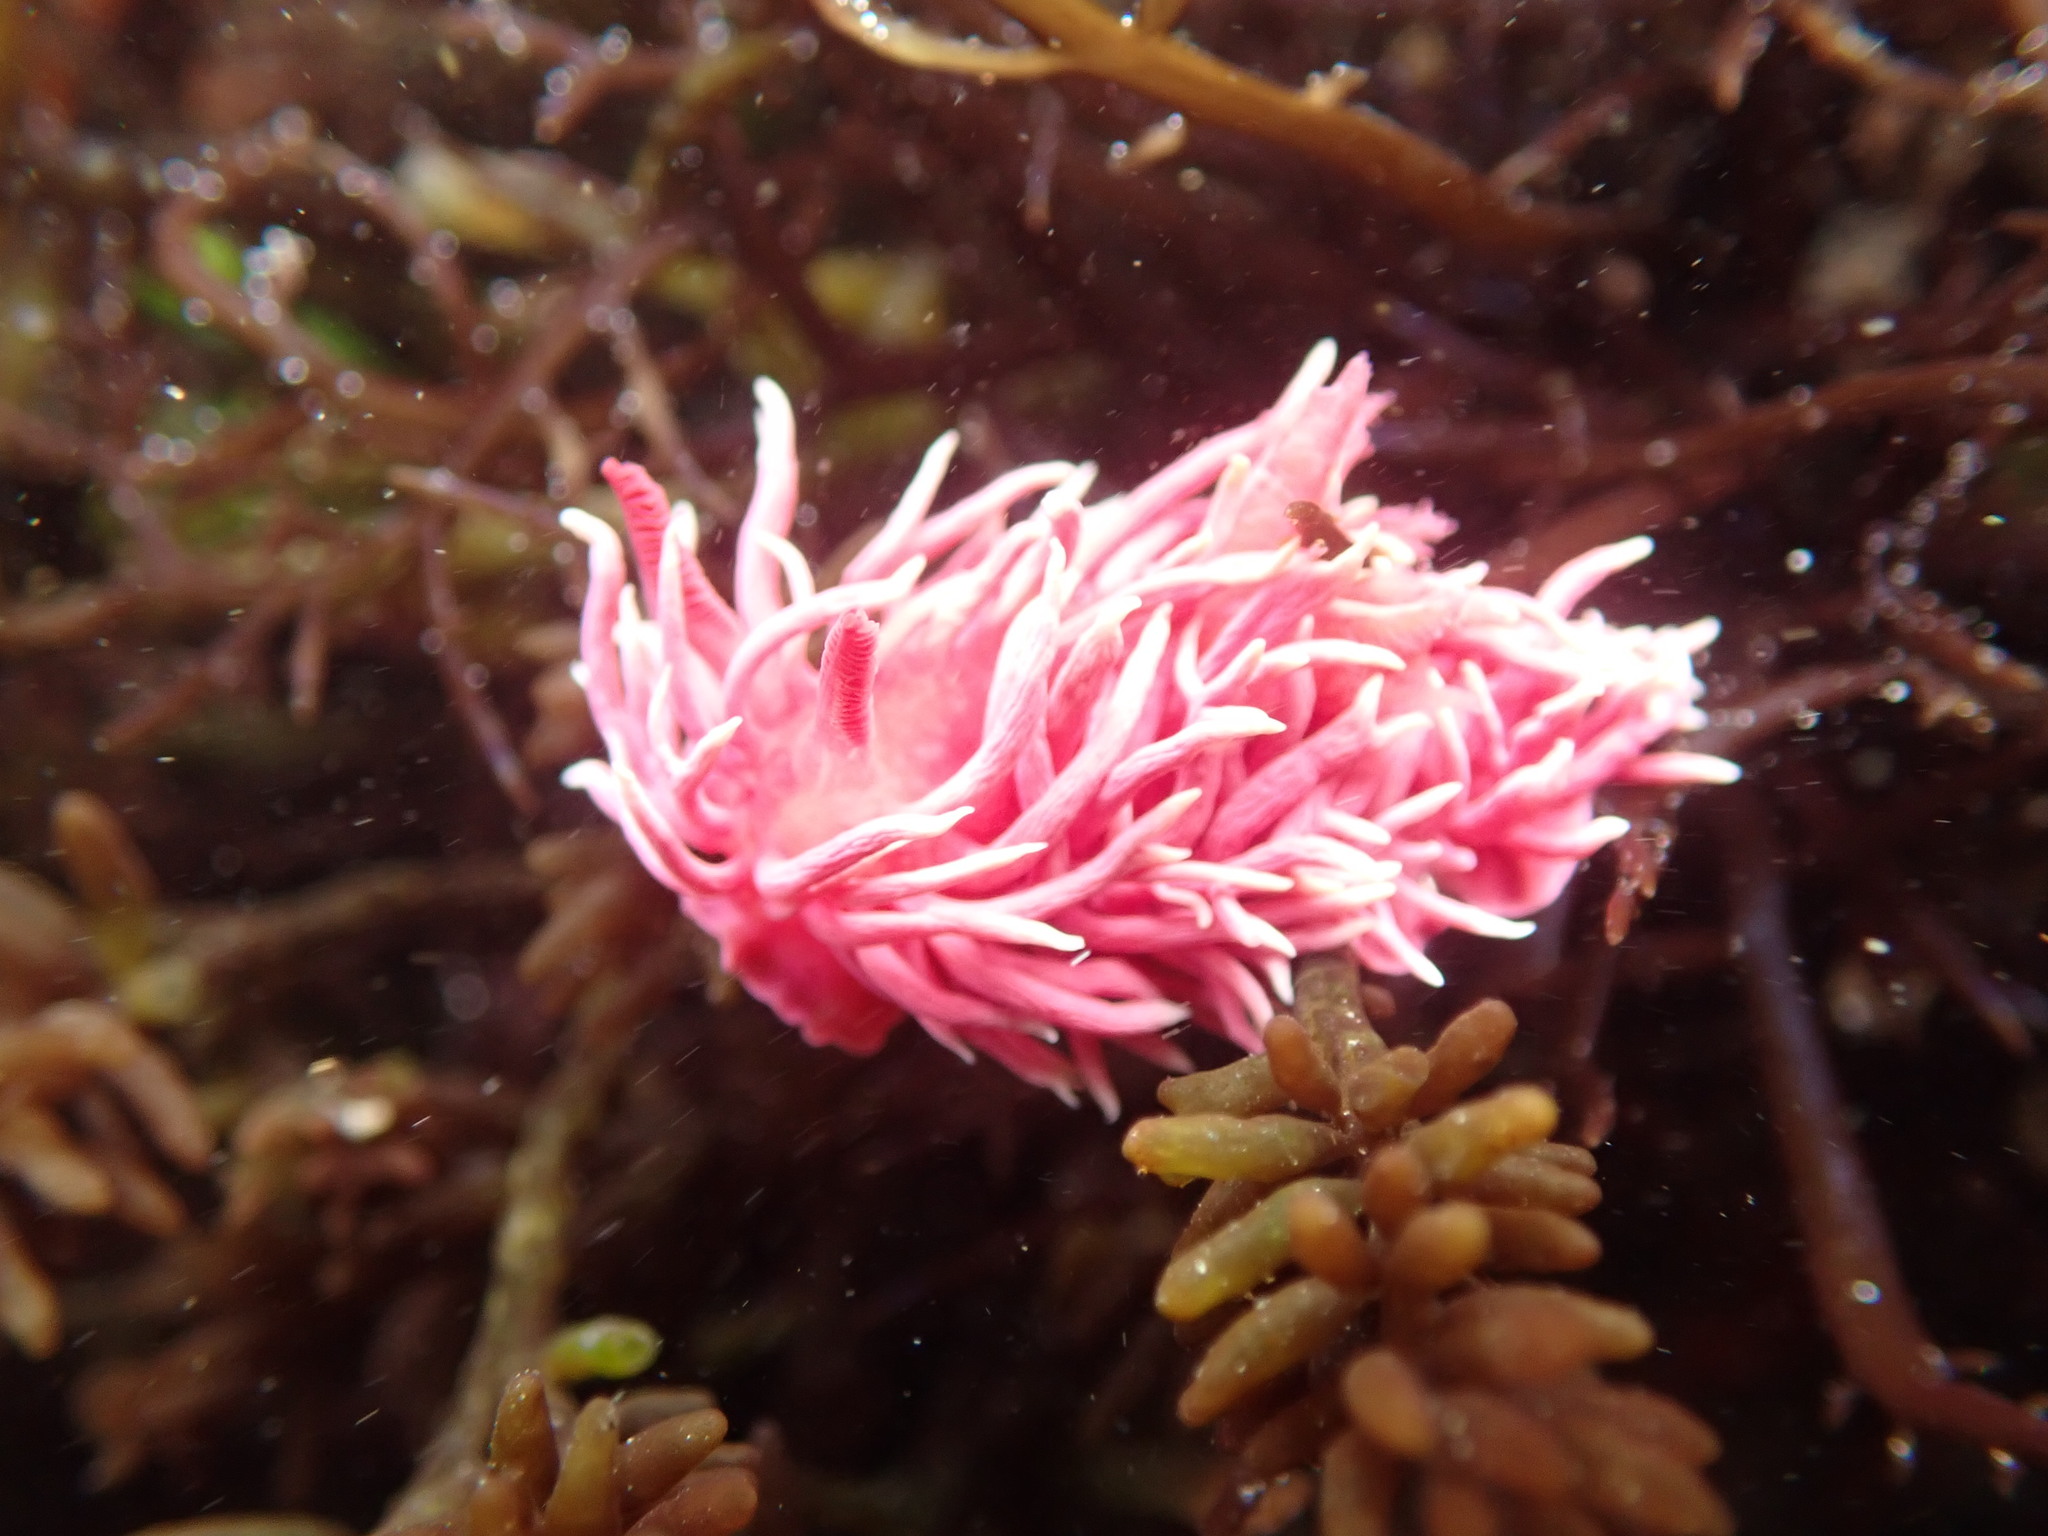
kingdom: Animalia
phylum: Mollusca
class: Gastropoda
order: Nudibranchia
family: Goniodorididae
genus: Okenia
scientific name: Okenia
